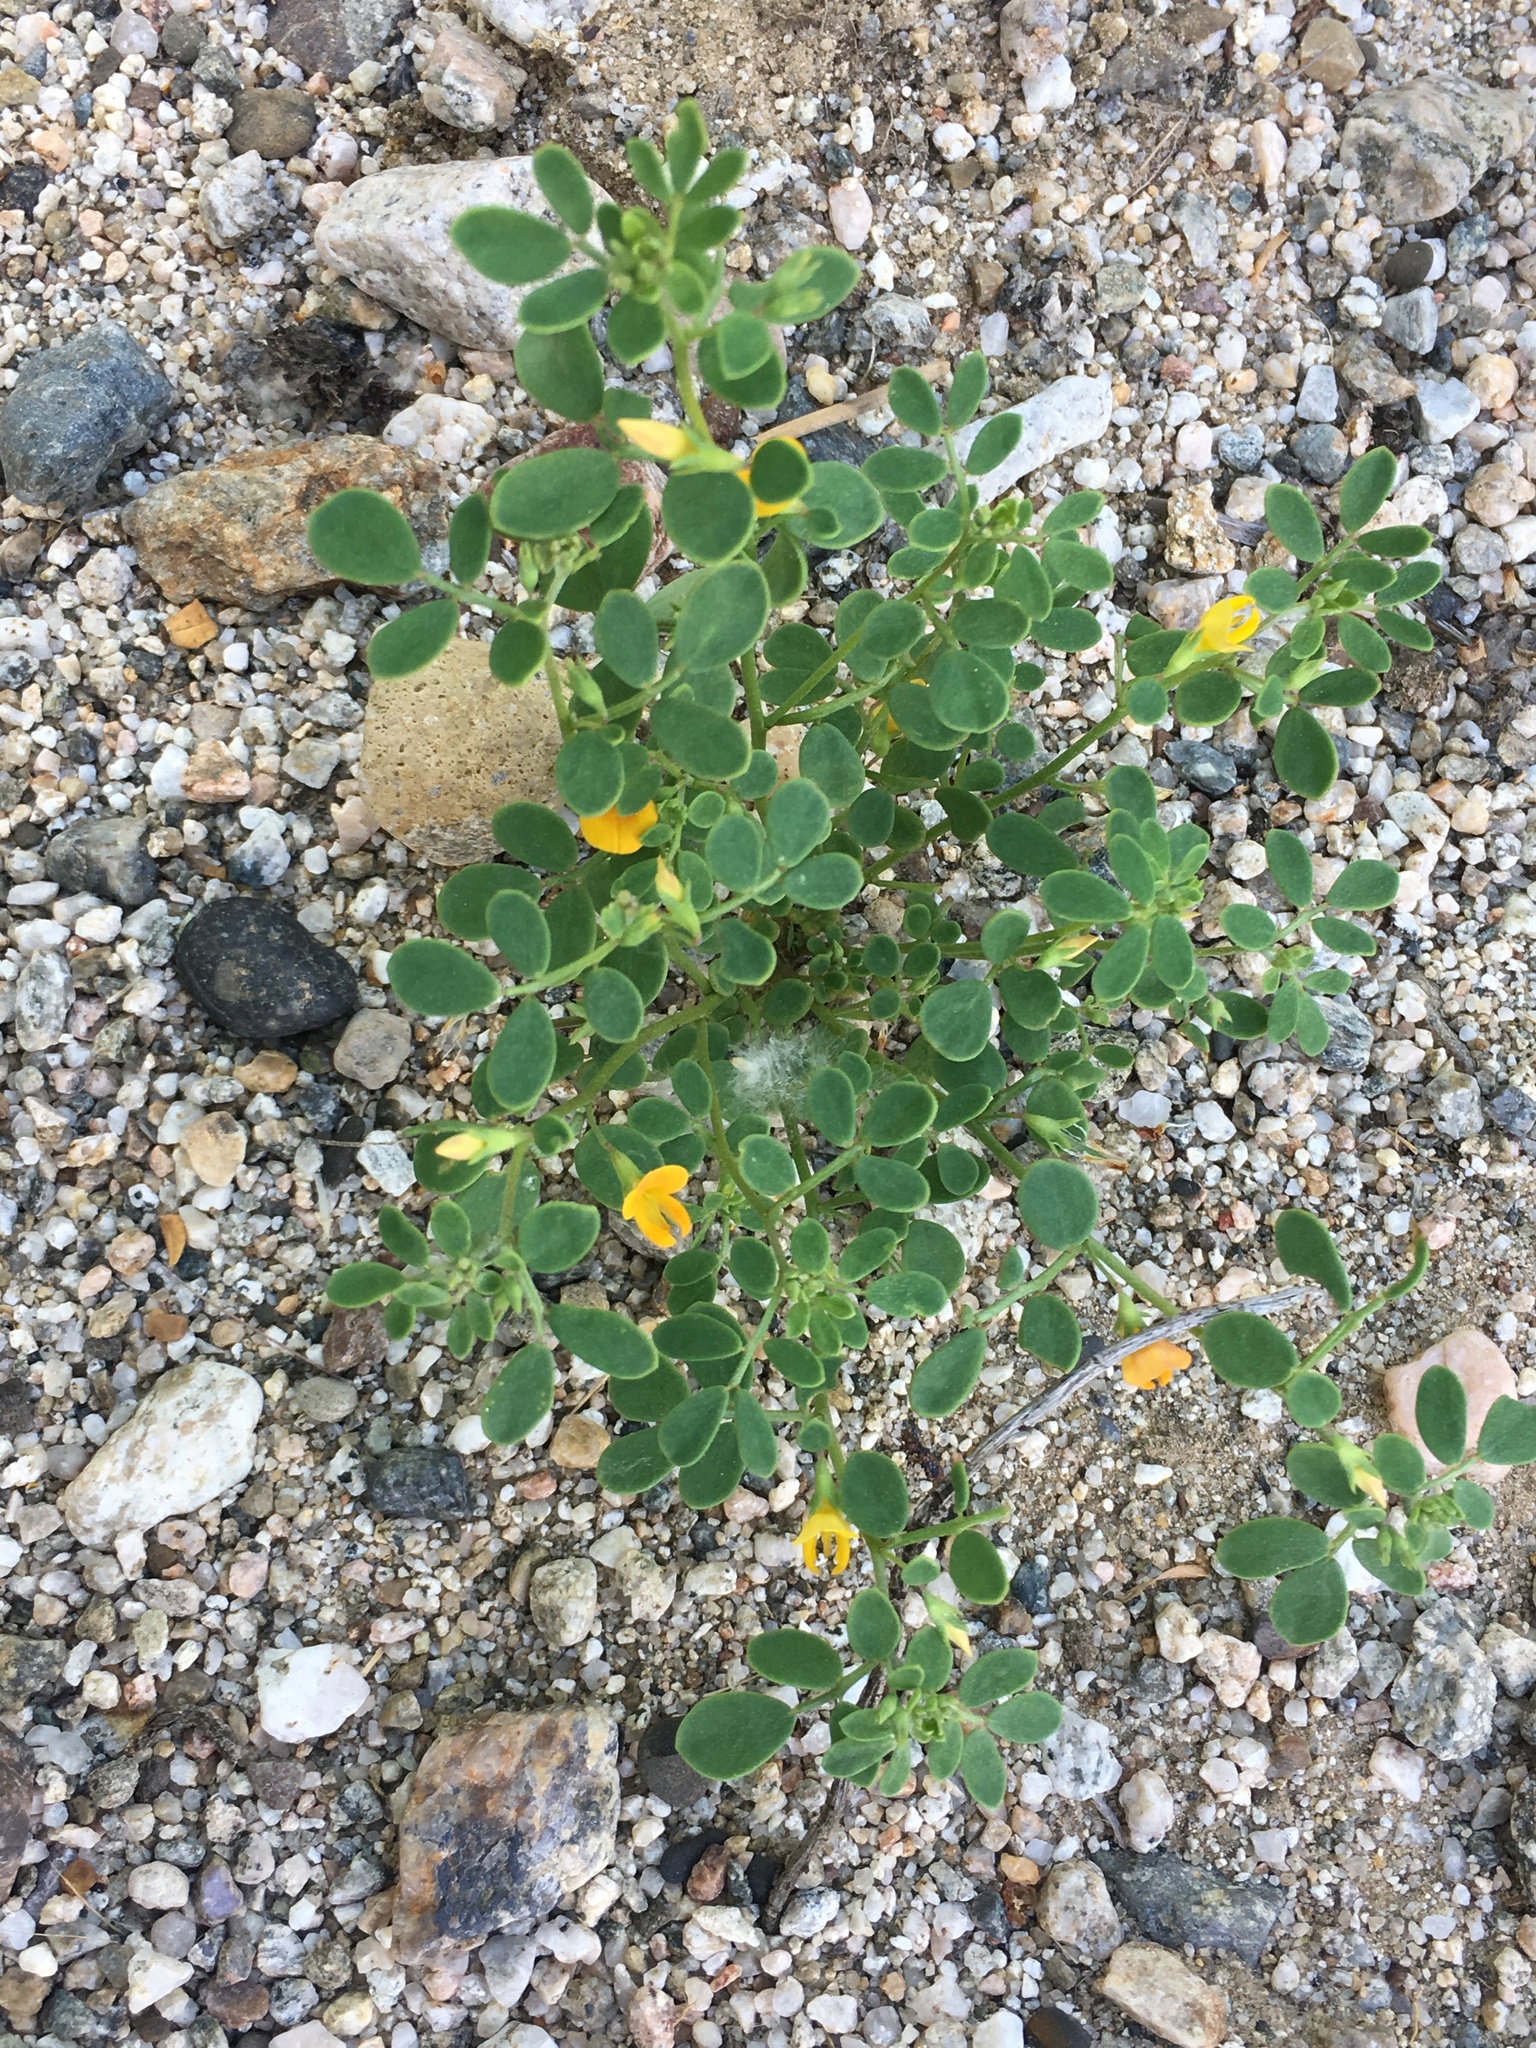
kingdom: Plantae
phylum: Tracheophyta
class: Magnoliopsida
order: Fabales
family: Fabaceae
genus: Acmispon
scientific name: Acmispon maritimus
